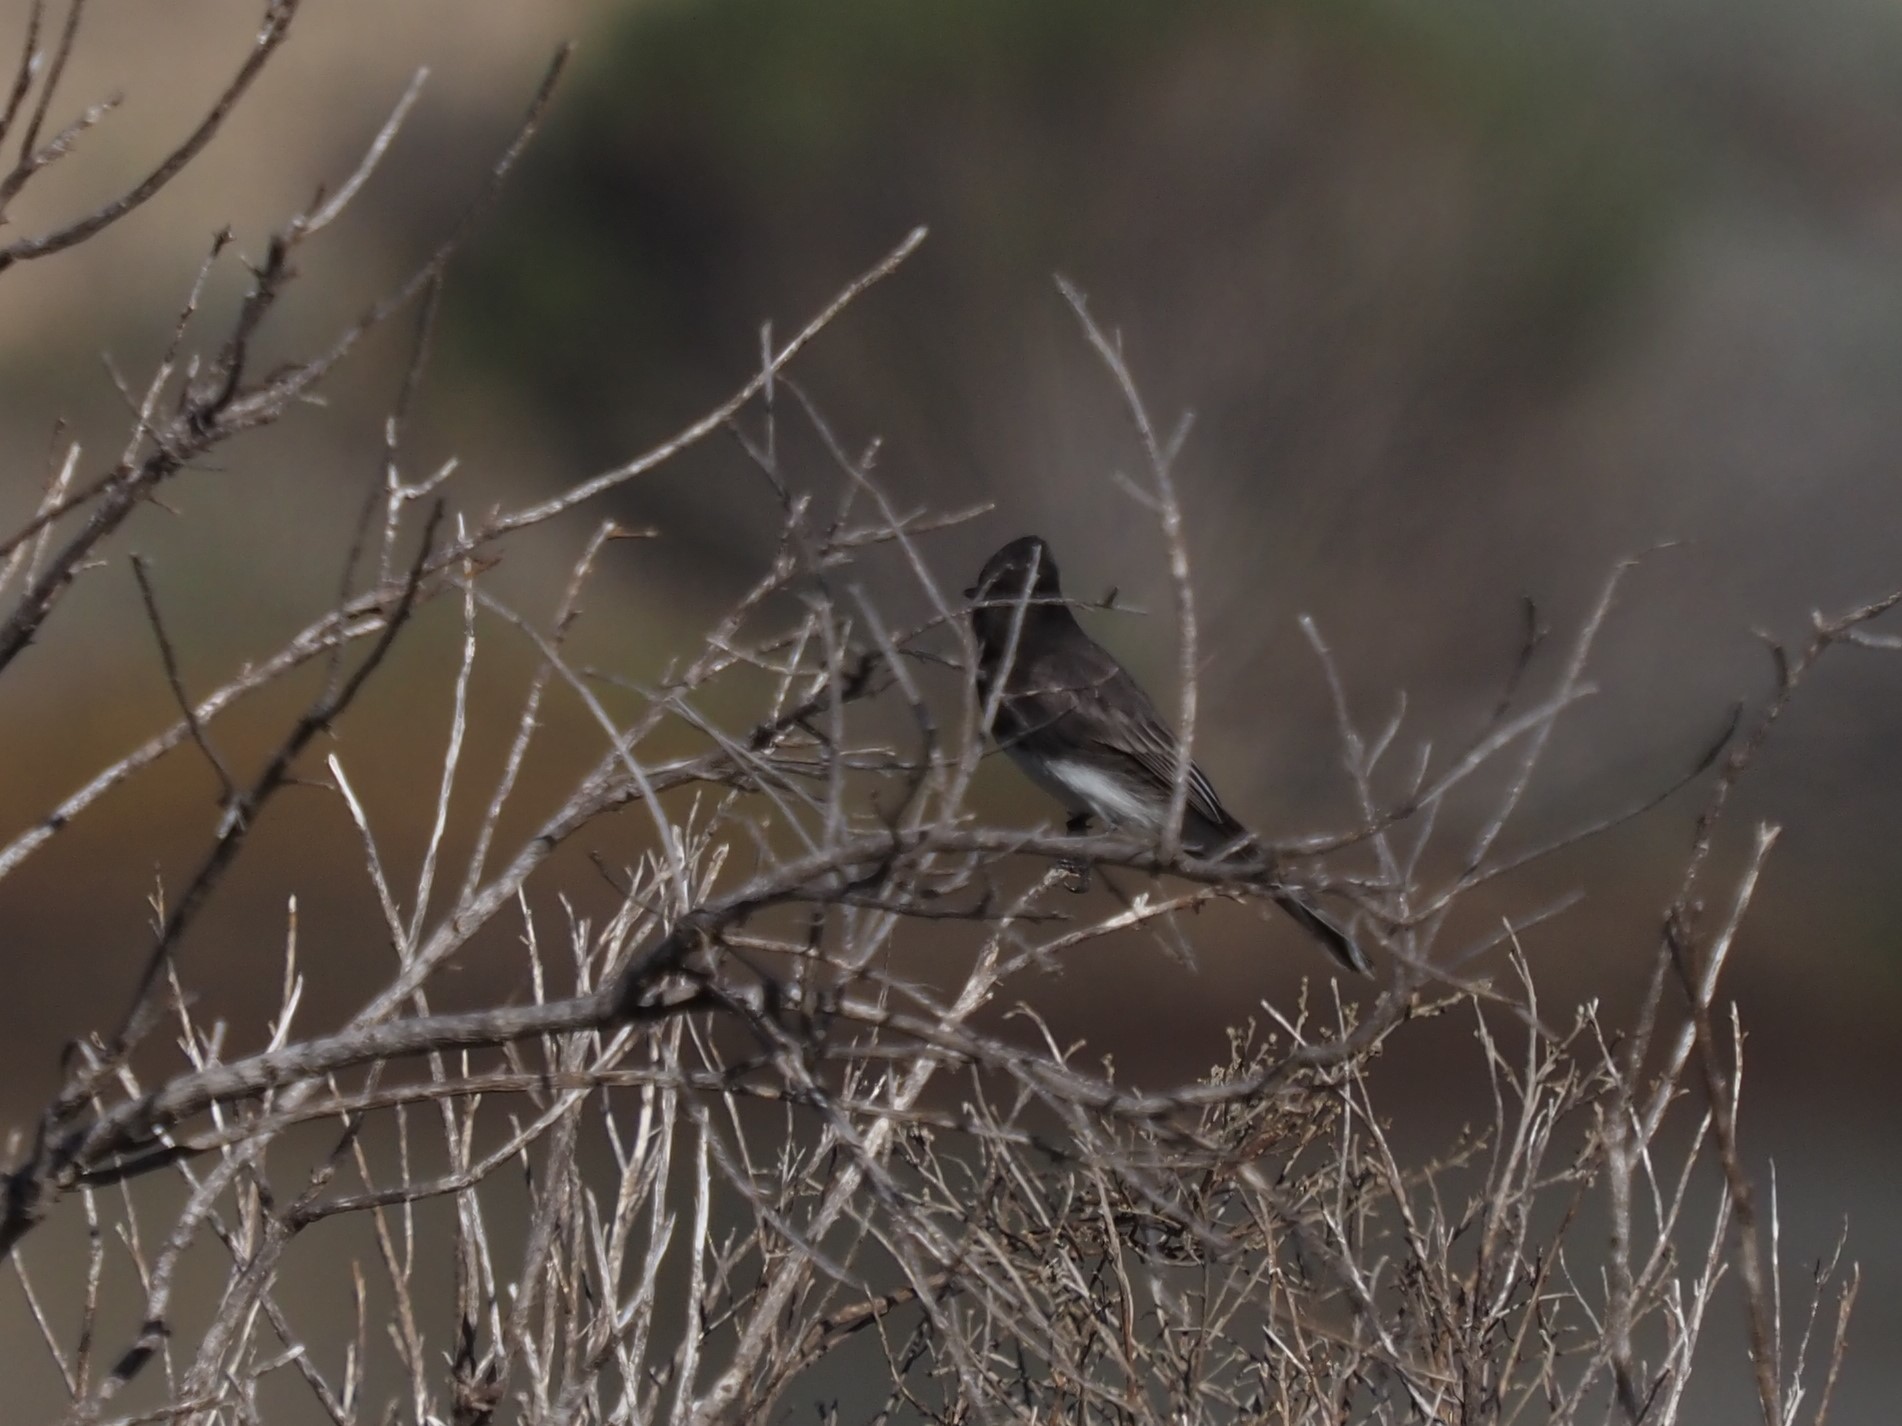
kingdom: Animalia
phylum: Chordata
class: Aves
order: Passeriformes
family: Tyrannidae
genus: Sayornis
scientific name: Sayornis nigricans
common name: Black phoebe
